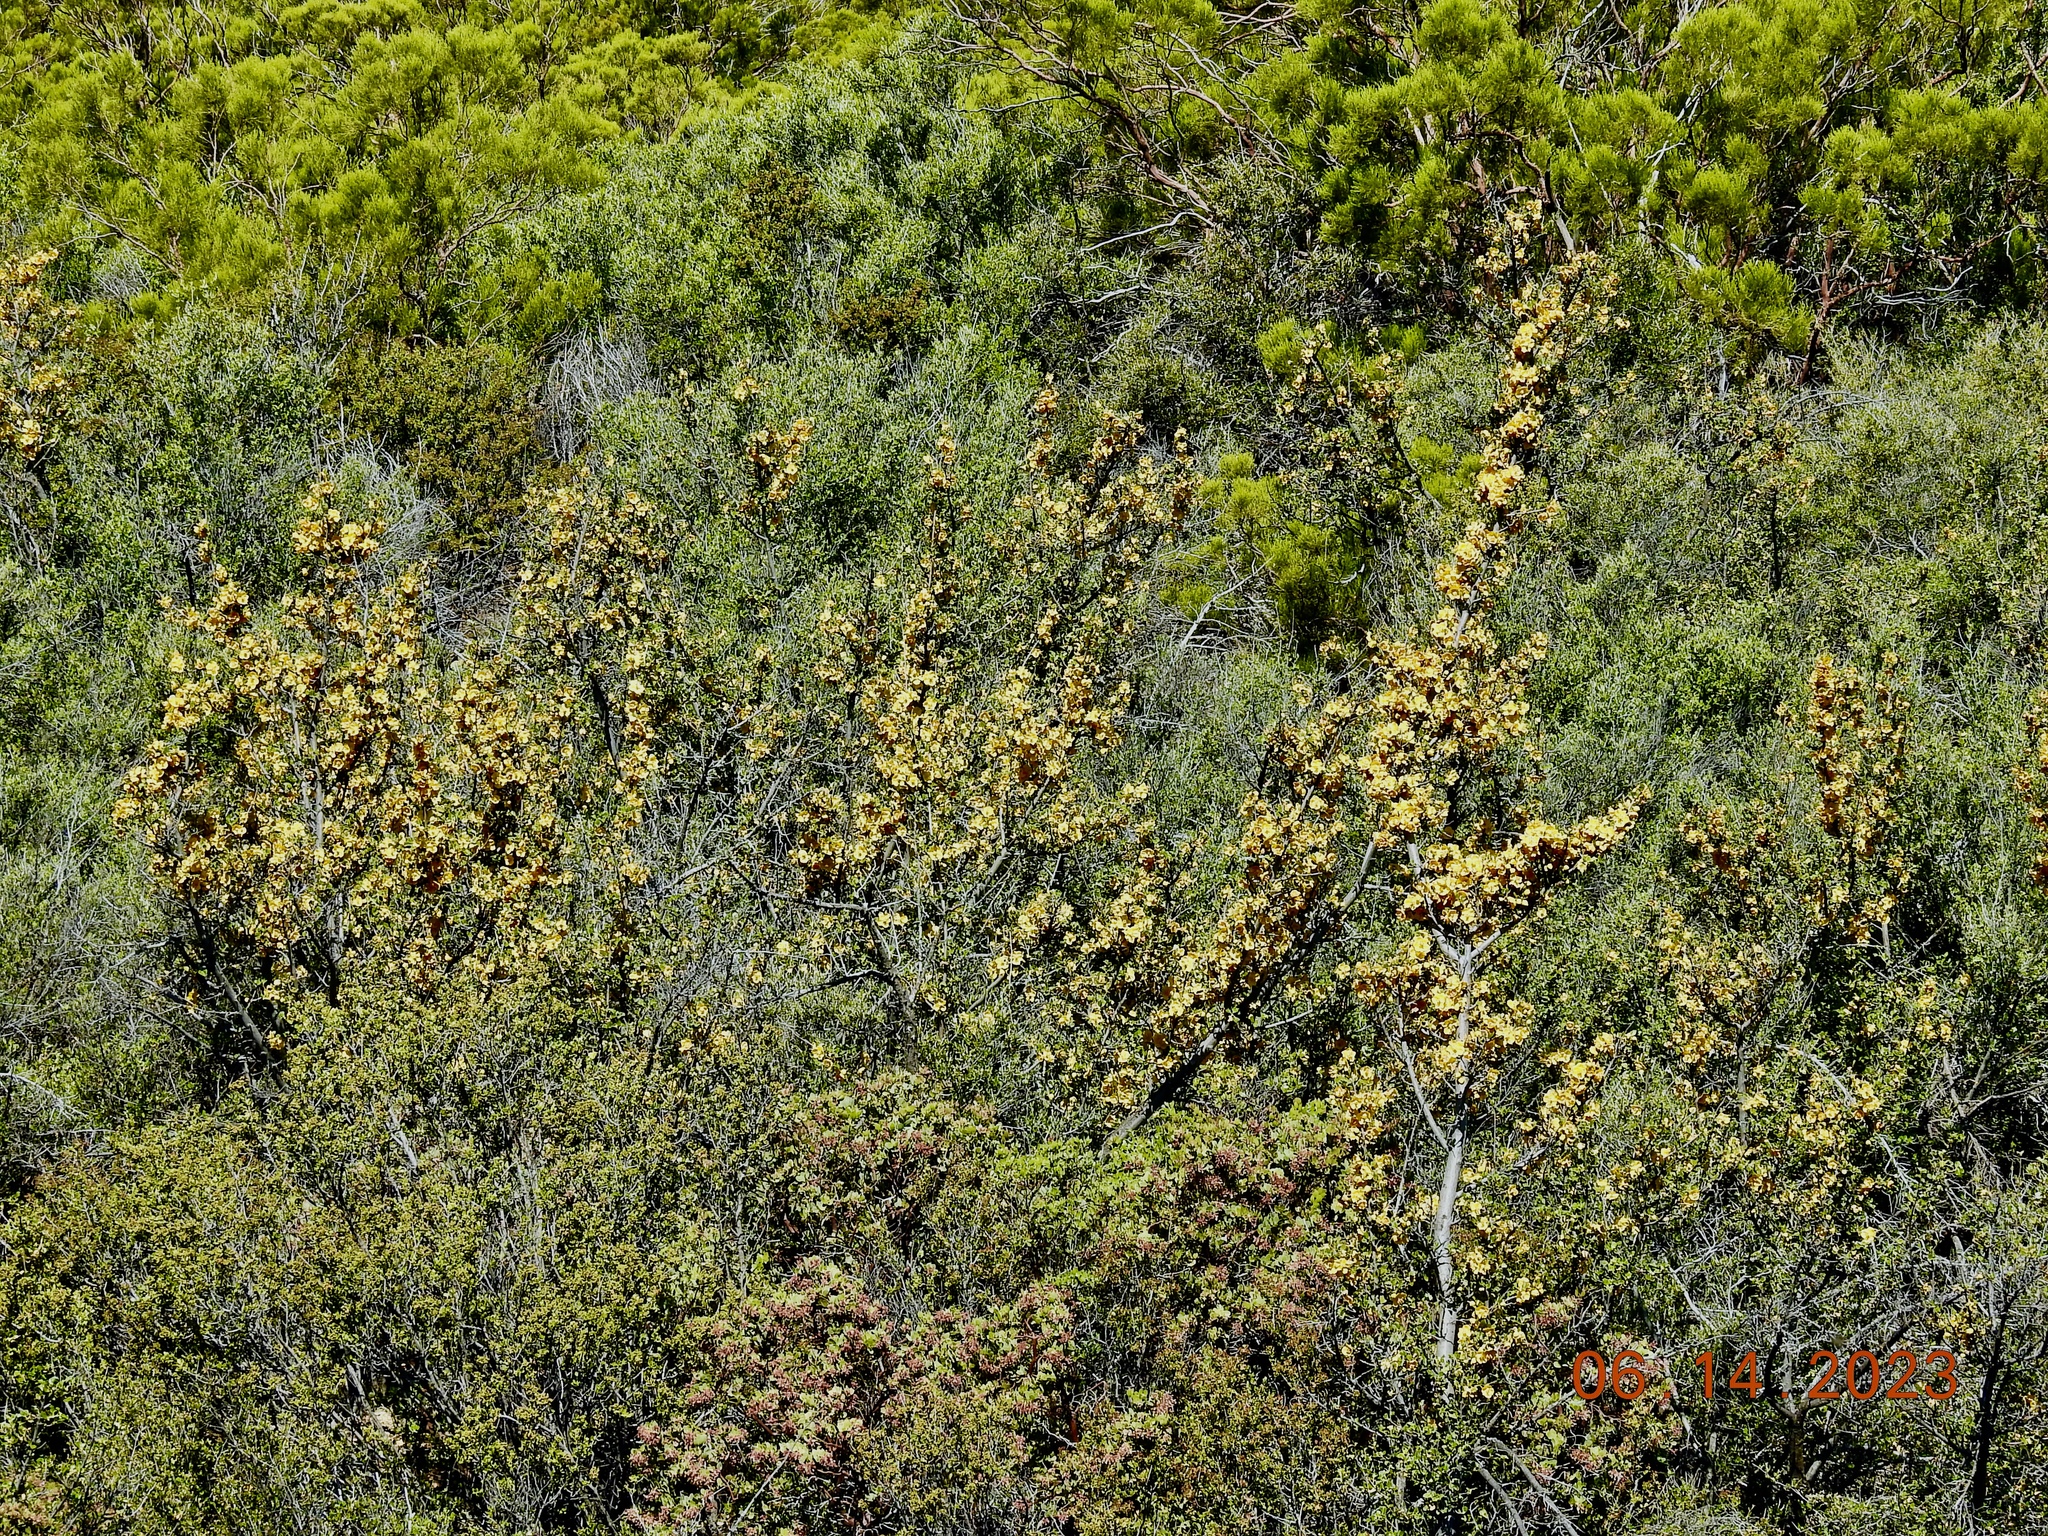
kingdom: Plantae
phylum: Tracheophyta
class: Magnoliopsida
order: Malvales
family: Malvaceae
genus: Fremontodendron
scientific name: Fremontodendron californicum
